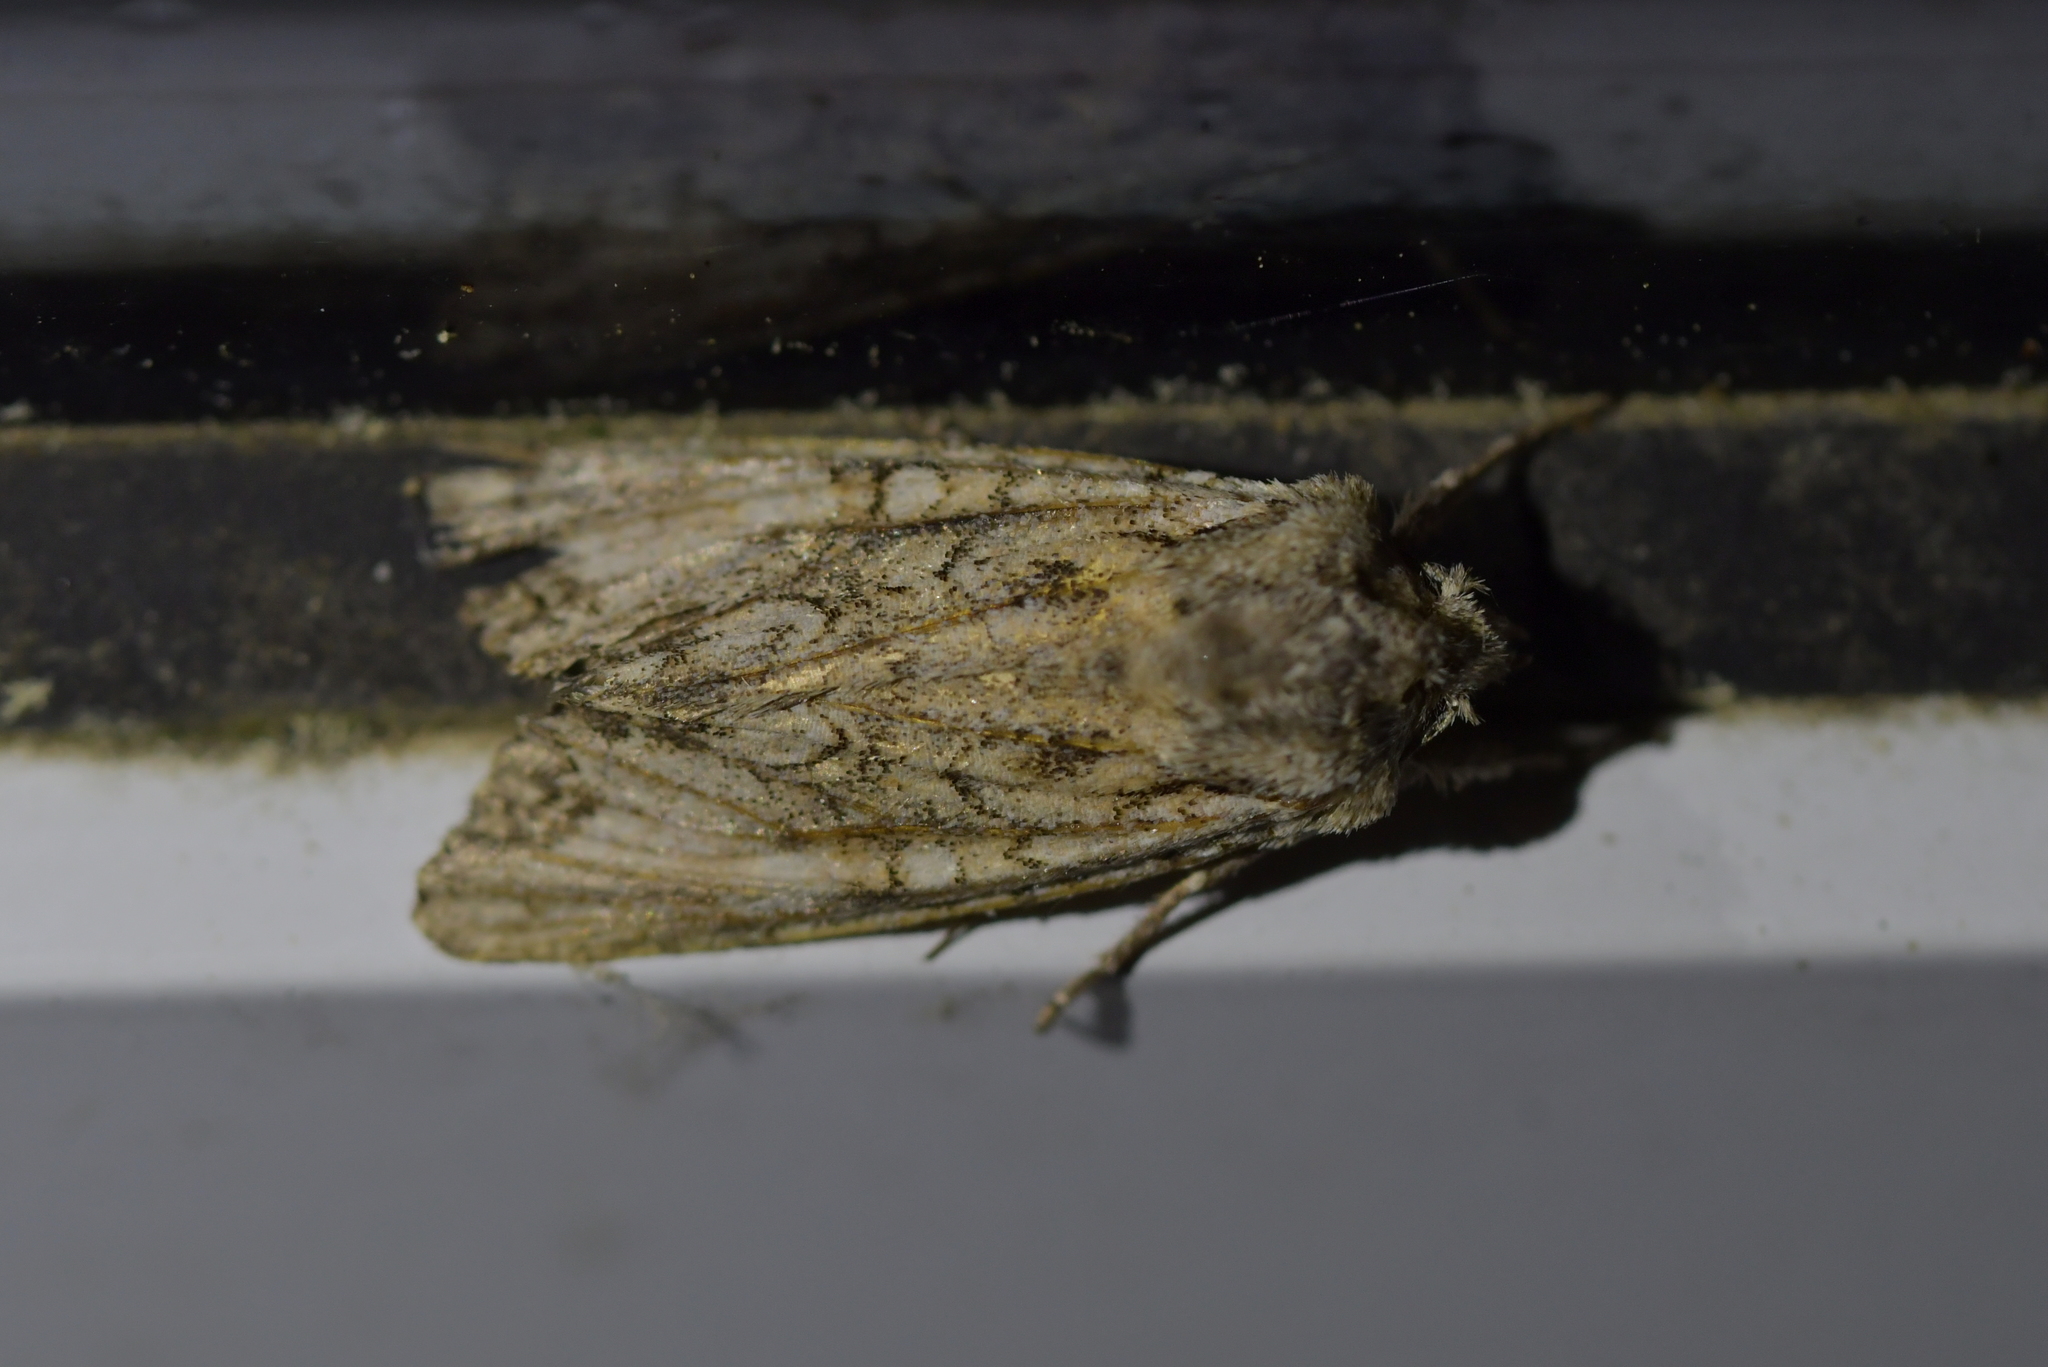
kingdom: Animalia
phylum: Arthropoda
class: Insecta
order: Lepidoptera
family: Noctuidae
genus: Ichneutica
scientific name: Ichneutica mutans
